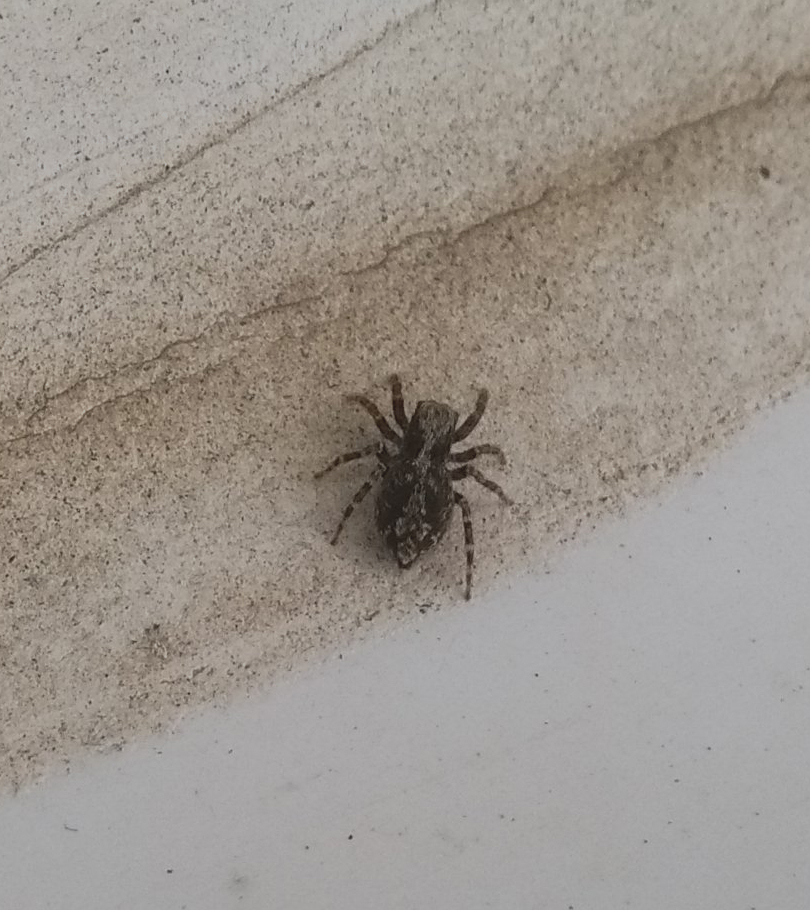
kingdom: Animalia
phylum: Arthropoda
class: Arachnida
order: Araneae
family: Salticidae
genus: Pseudeuophrys
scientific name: Pseudeuophrys lanigera
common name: Jumping spider
